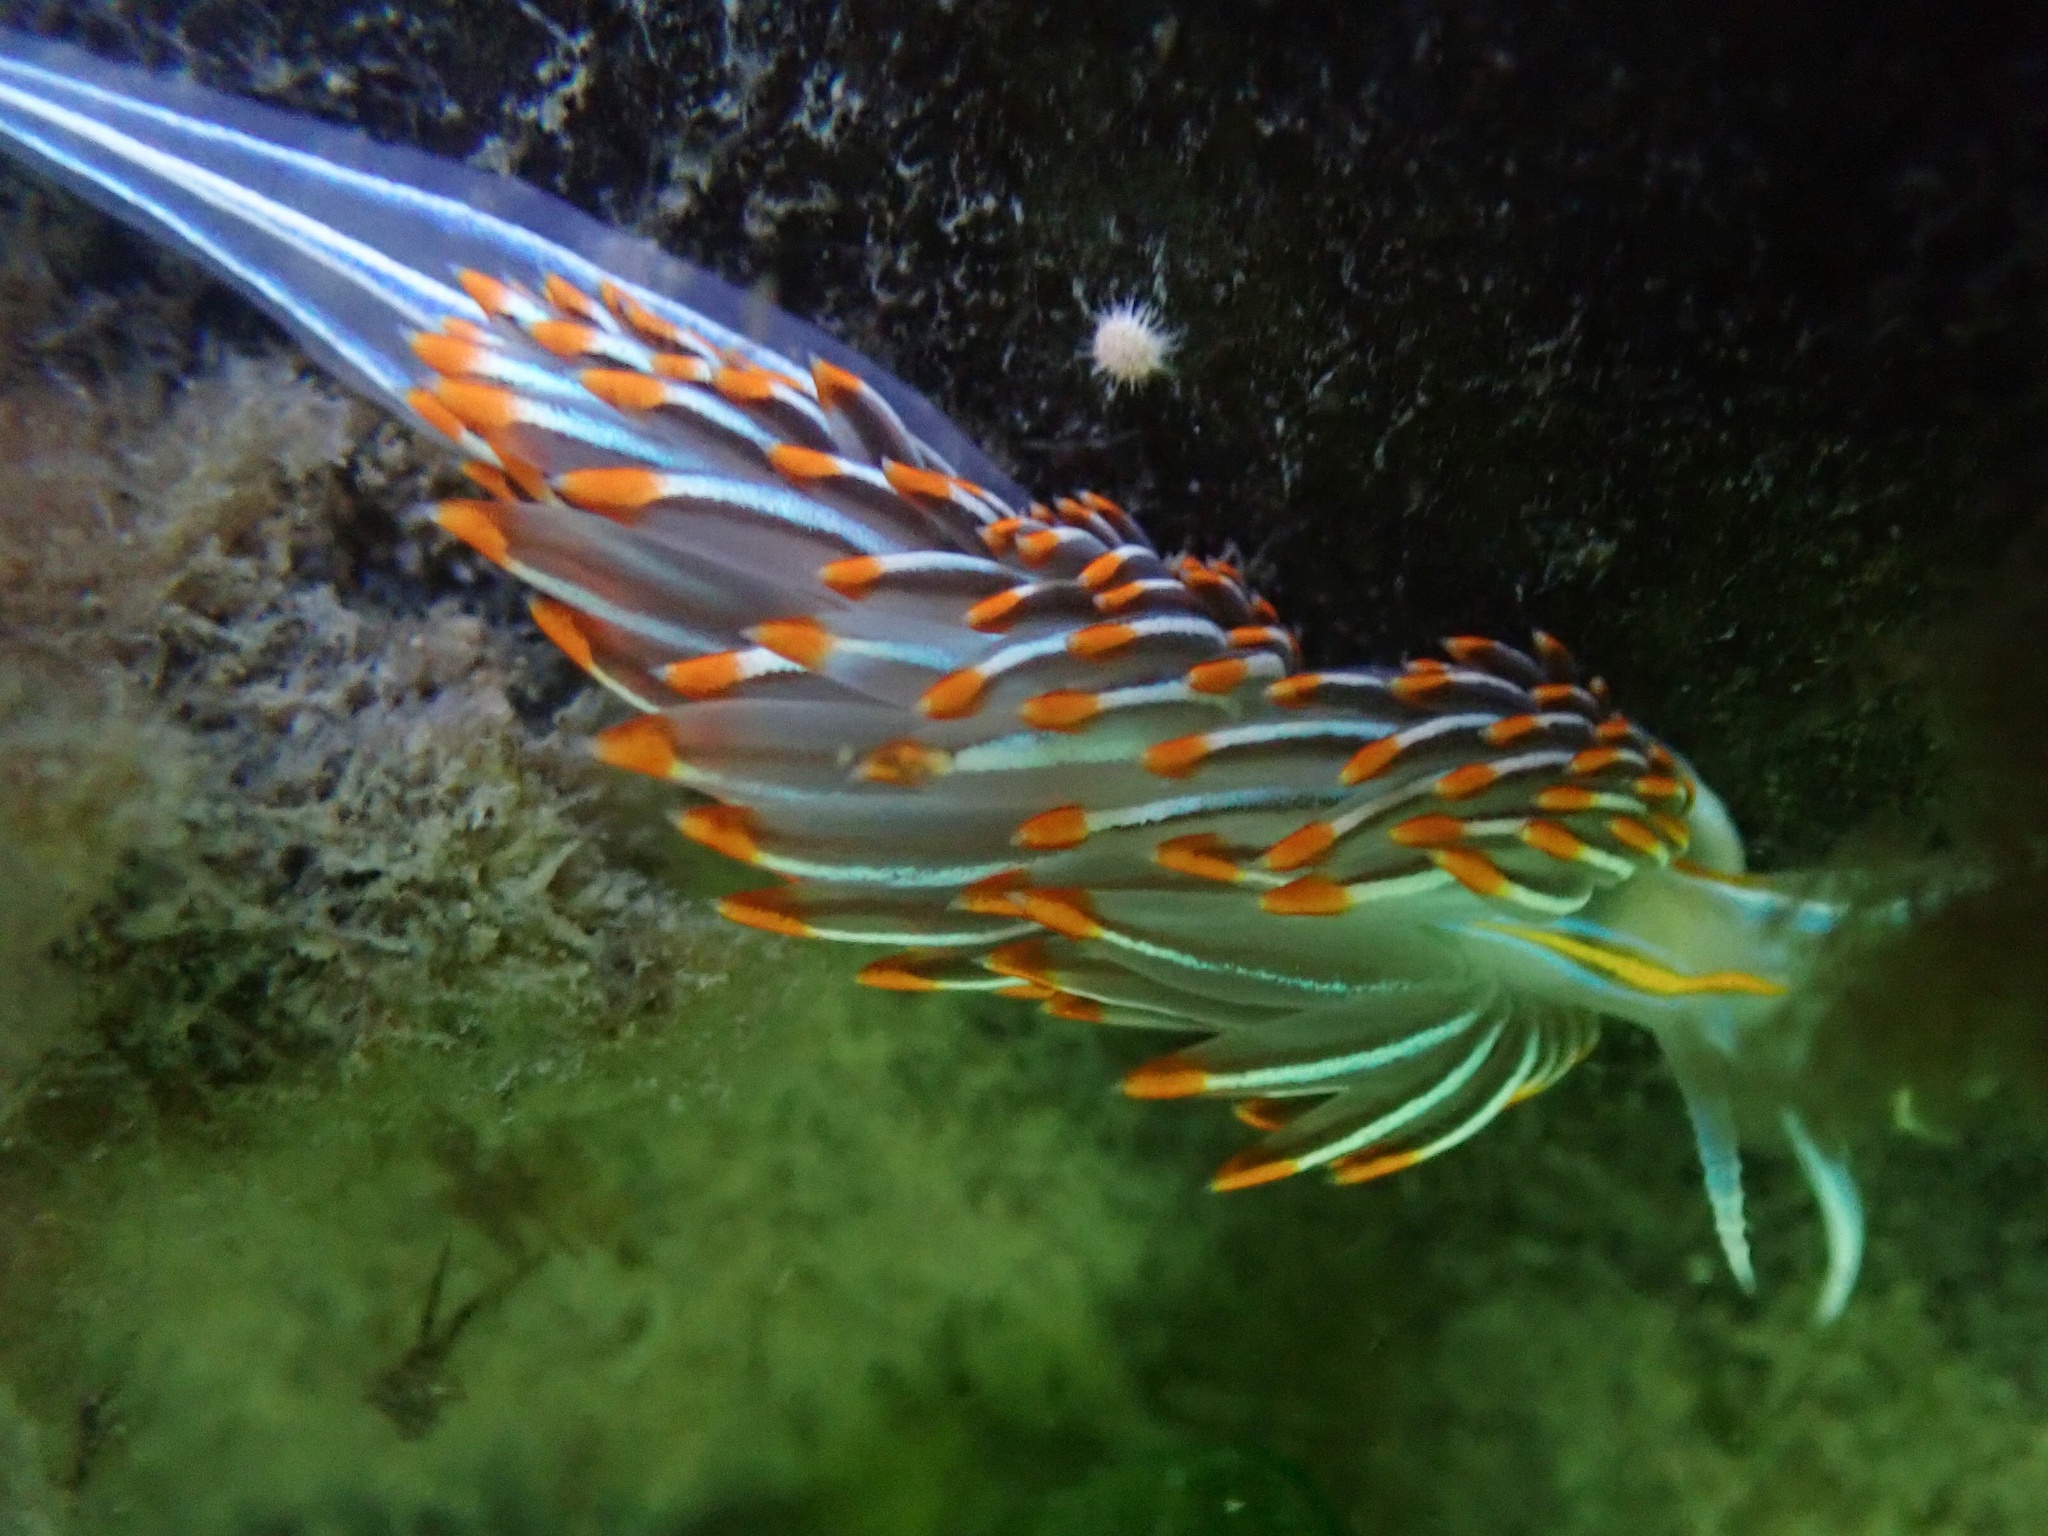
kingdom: Animalia
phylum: Mollusca
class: Gastropoda
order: Nudibranchia
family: Myrrhinidae
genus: Hermissenda
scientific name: Hermissenda crassicornis
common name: Hermissenda
